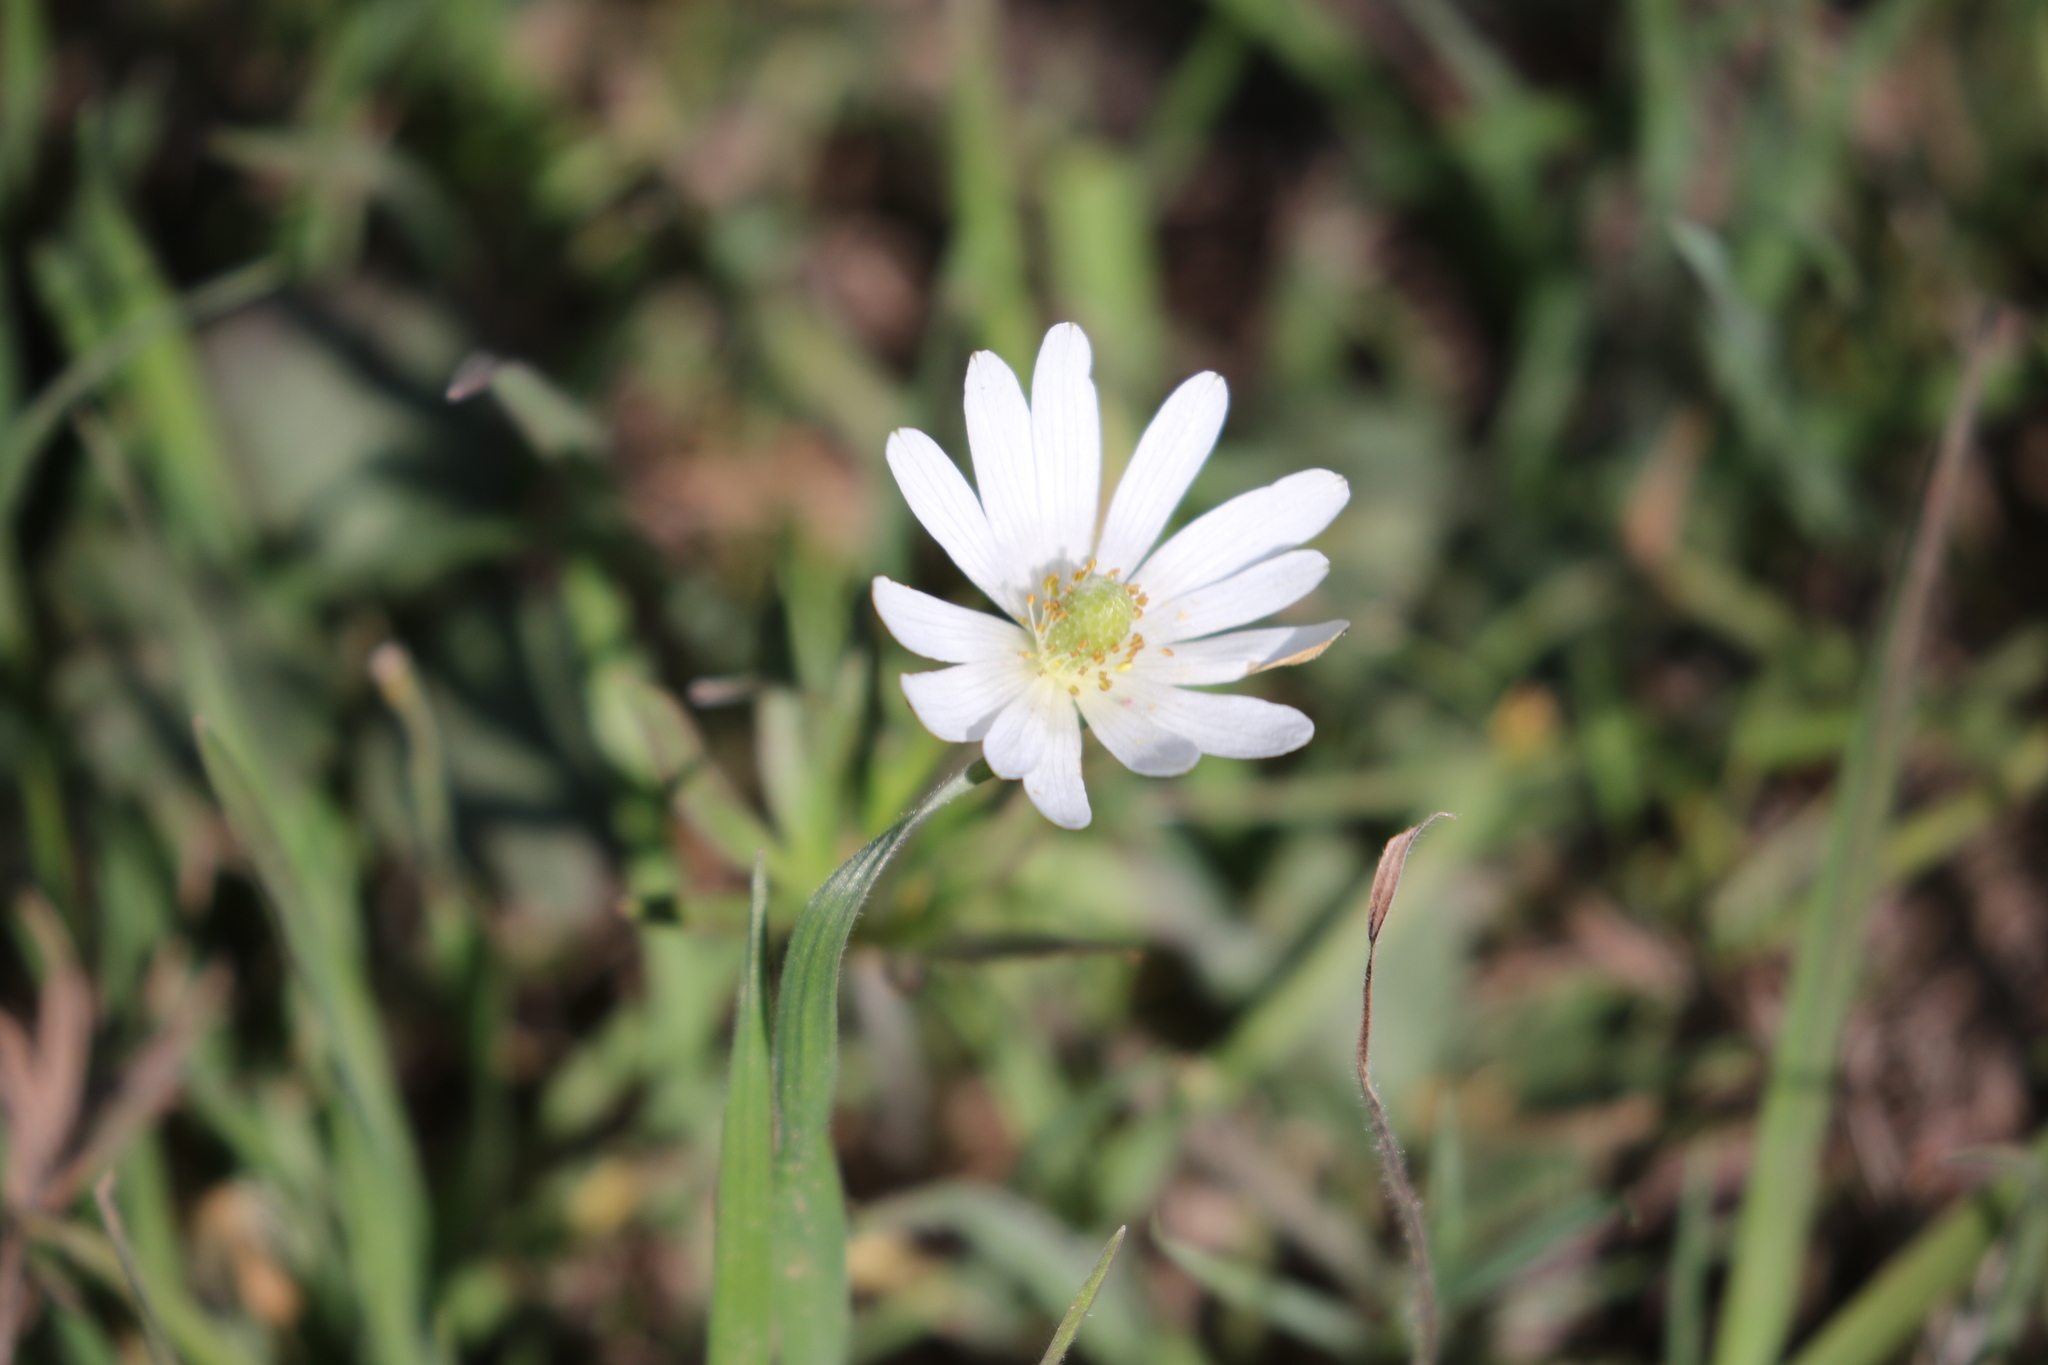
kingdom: Plantae
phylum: Tracheophyta
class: Magnoliopsida
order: Ranunculales
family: Ranunculaceae
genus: Anemone
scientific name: Anemone berlandieri
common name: Ten-petal anemone
